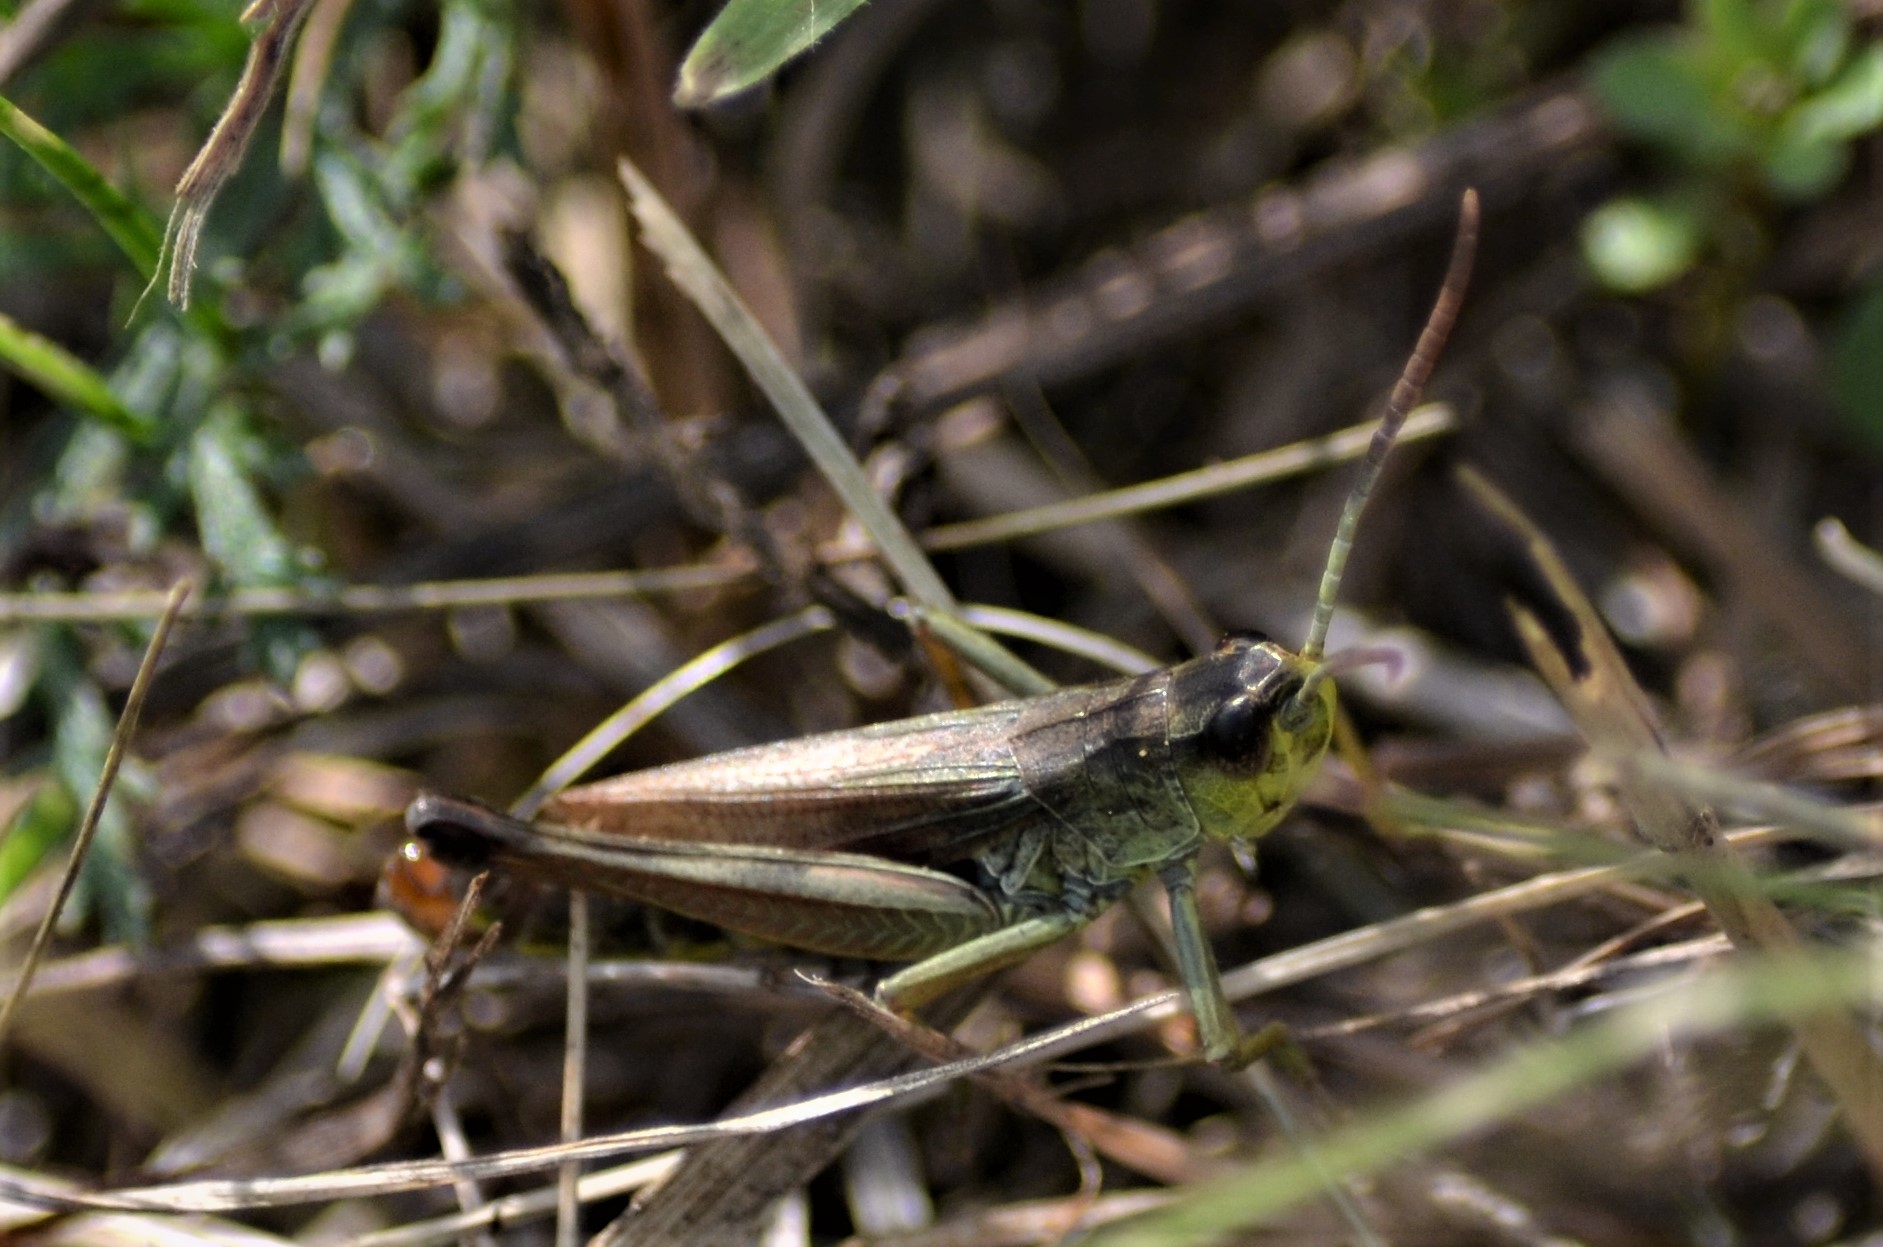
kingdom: Animalia
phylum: Arthropoda
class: Insecta
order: Orthoptera
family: Acrididae
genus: Pseudochorthippus
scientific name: Pseudochorthippus parallelus
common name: Meadow grasshopper
